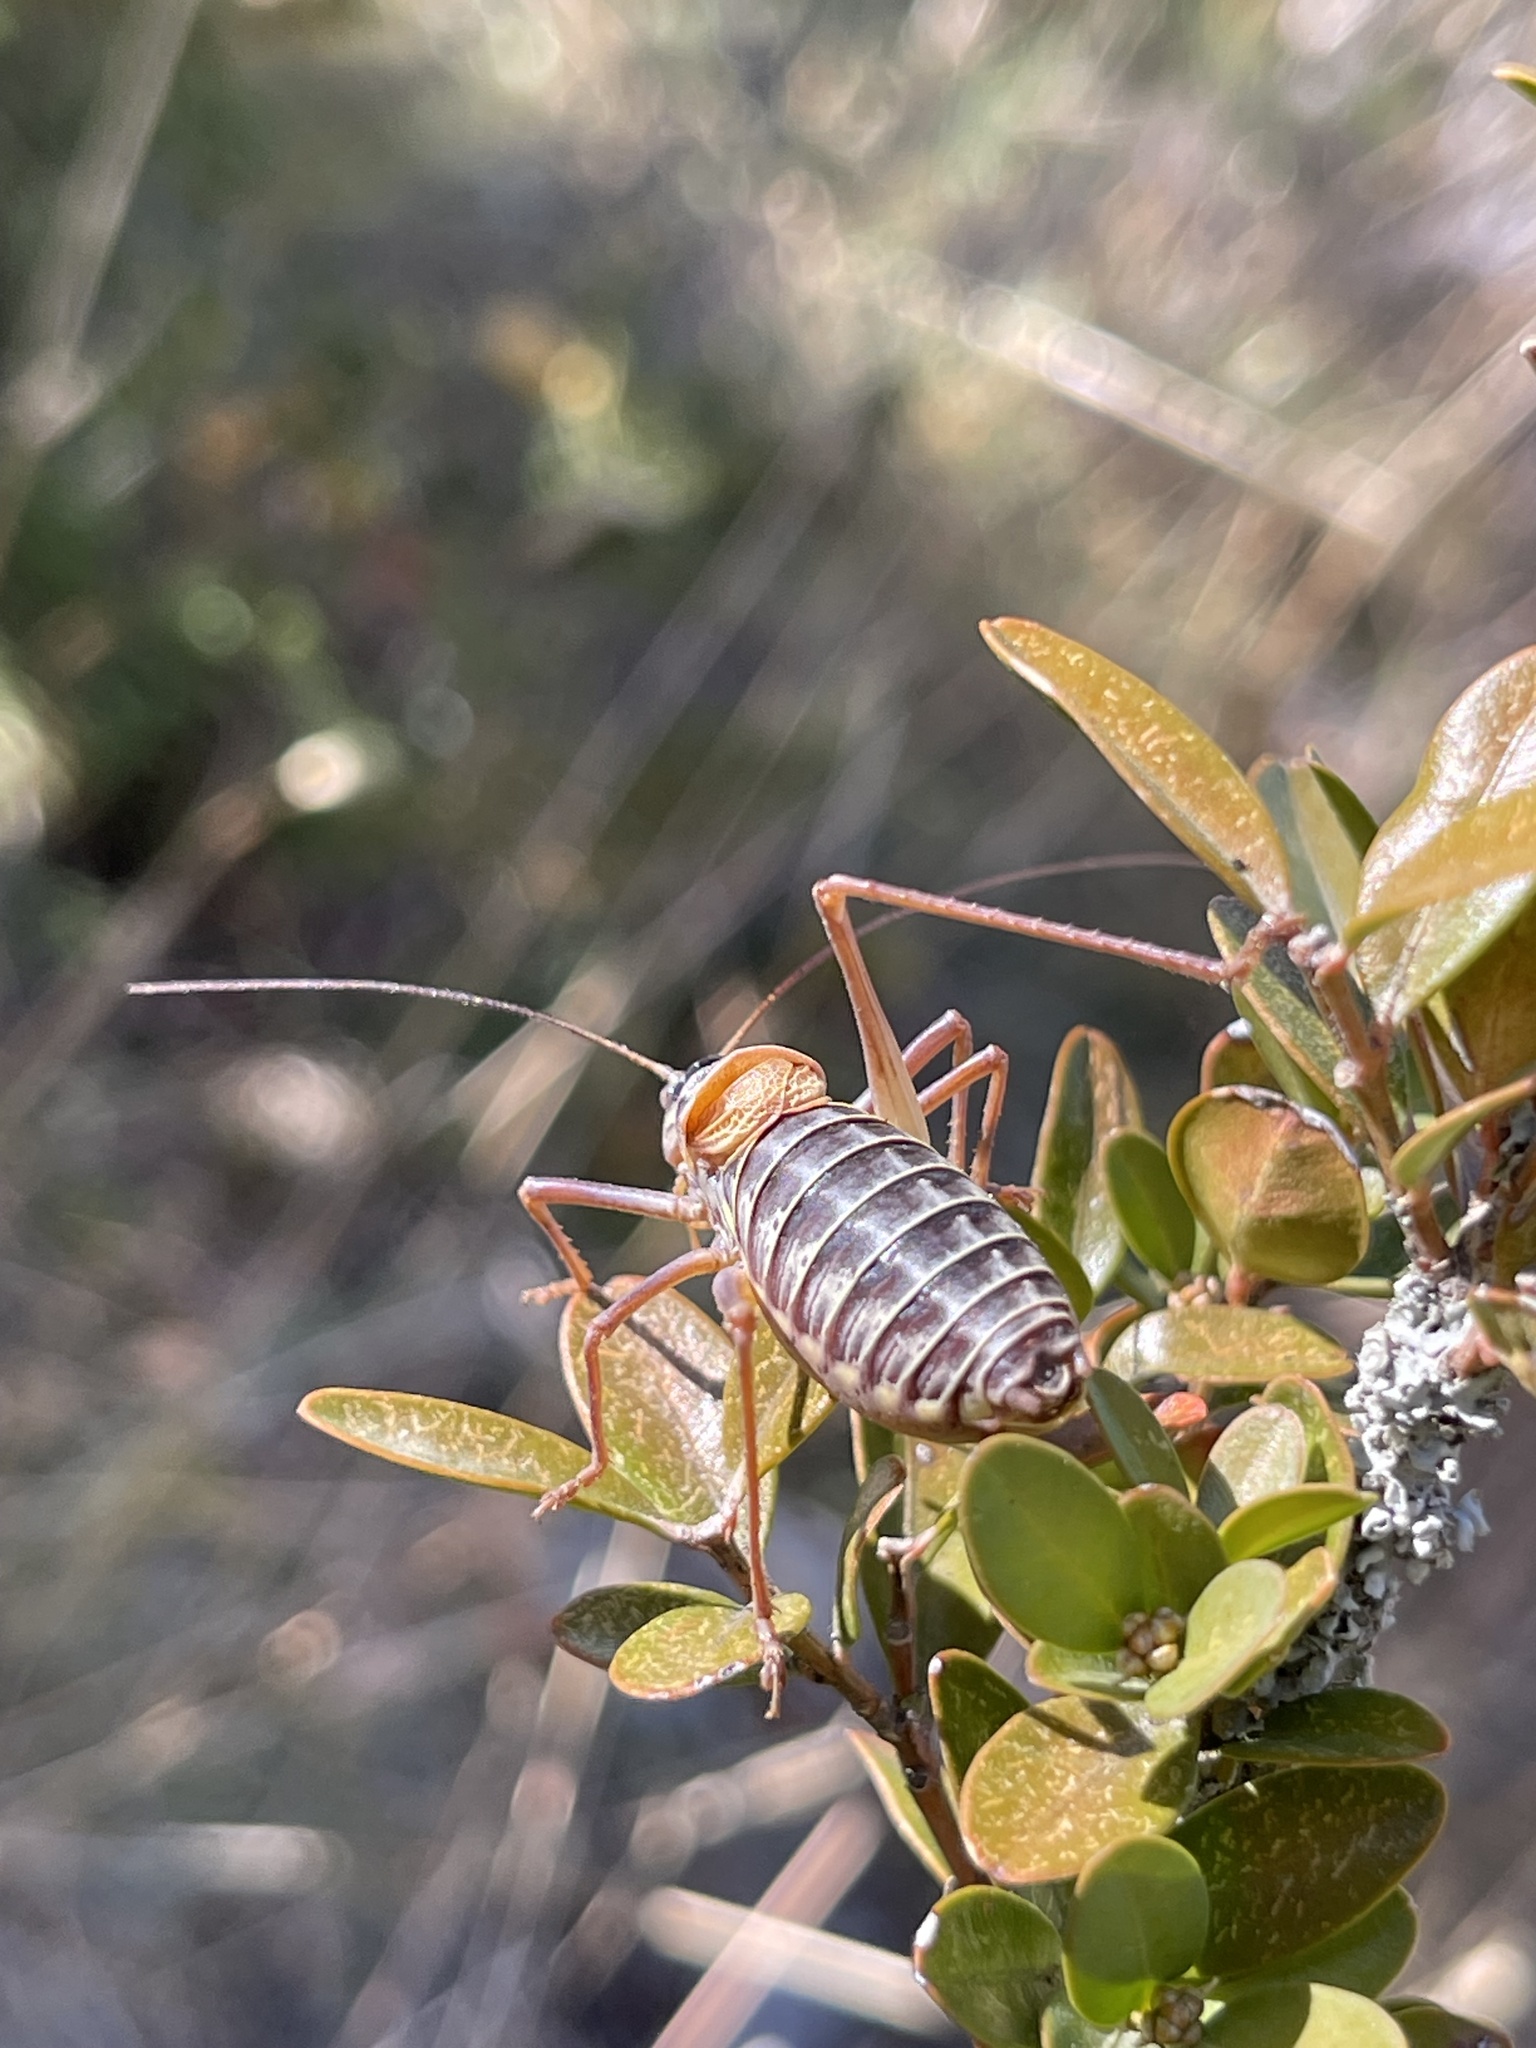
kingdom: Animalia
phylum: Arthropoda
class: Insecta
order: Orthoptera
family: Tettigoniidae
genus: Sorapagus
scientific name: Sorapagus catalaunicus
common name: Catalan saddle bush-cricket
